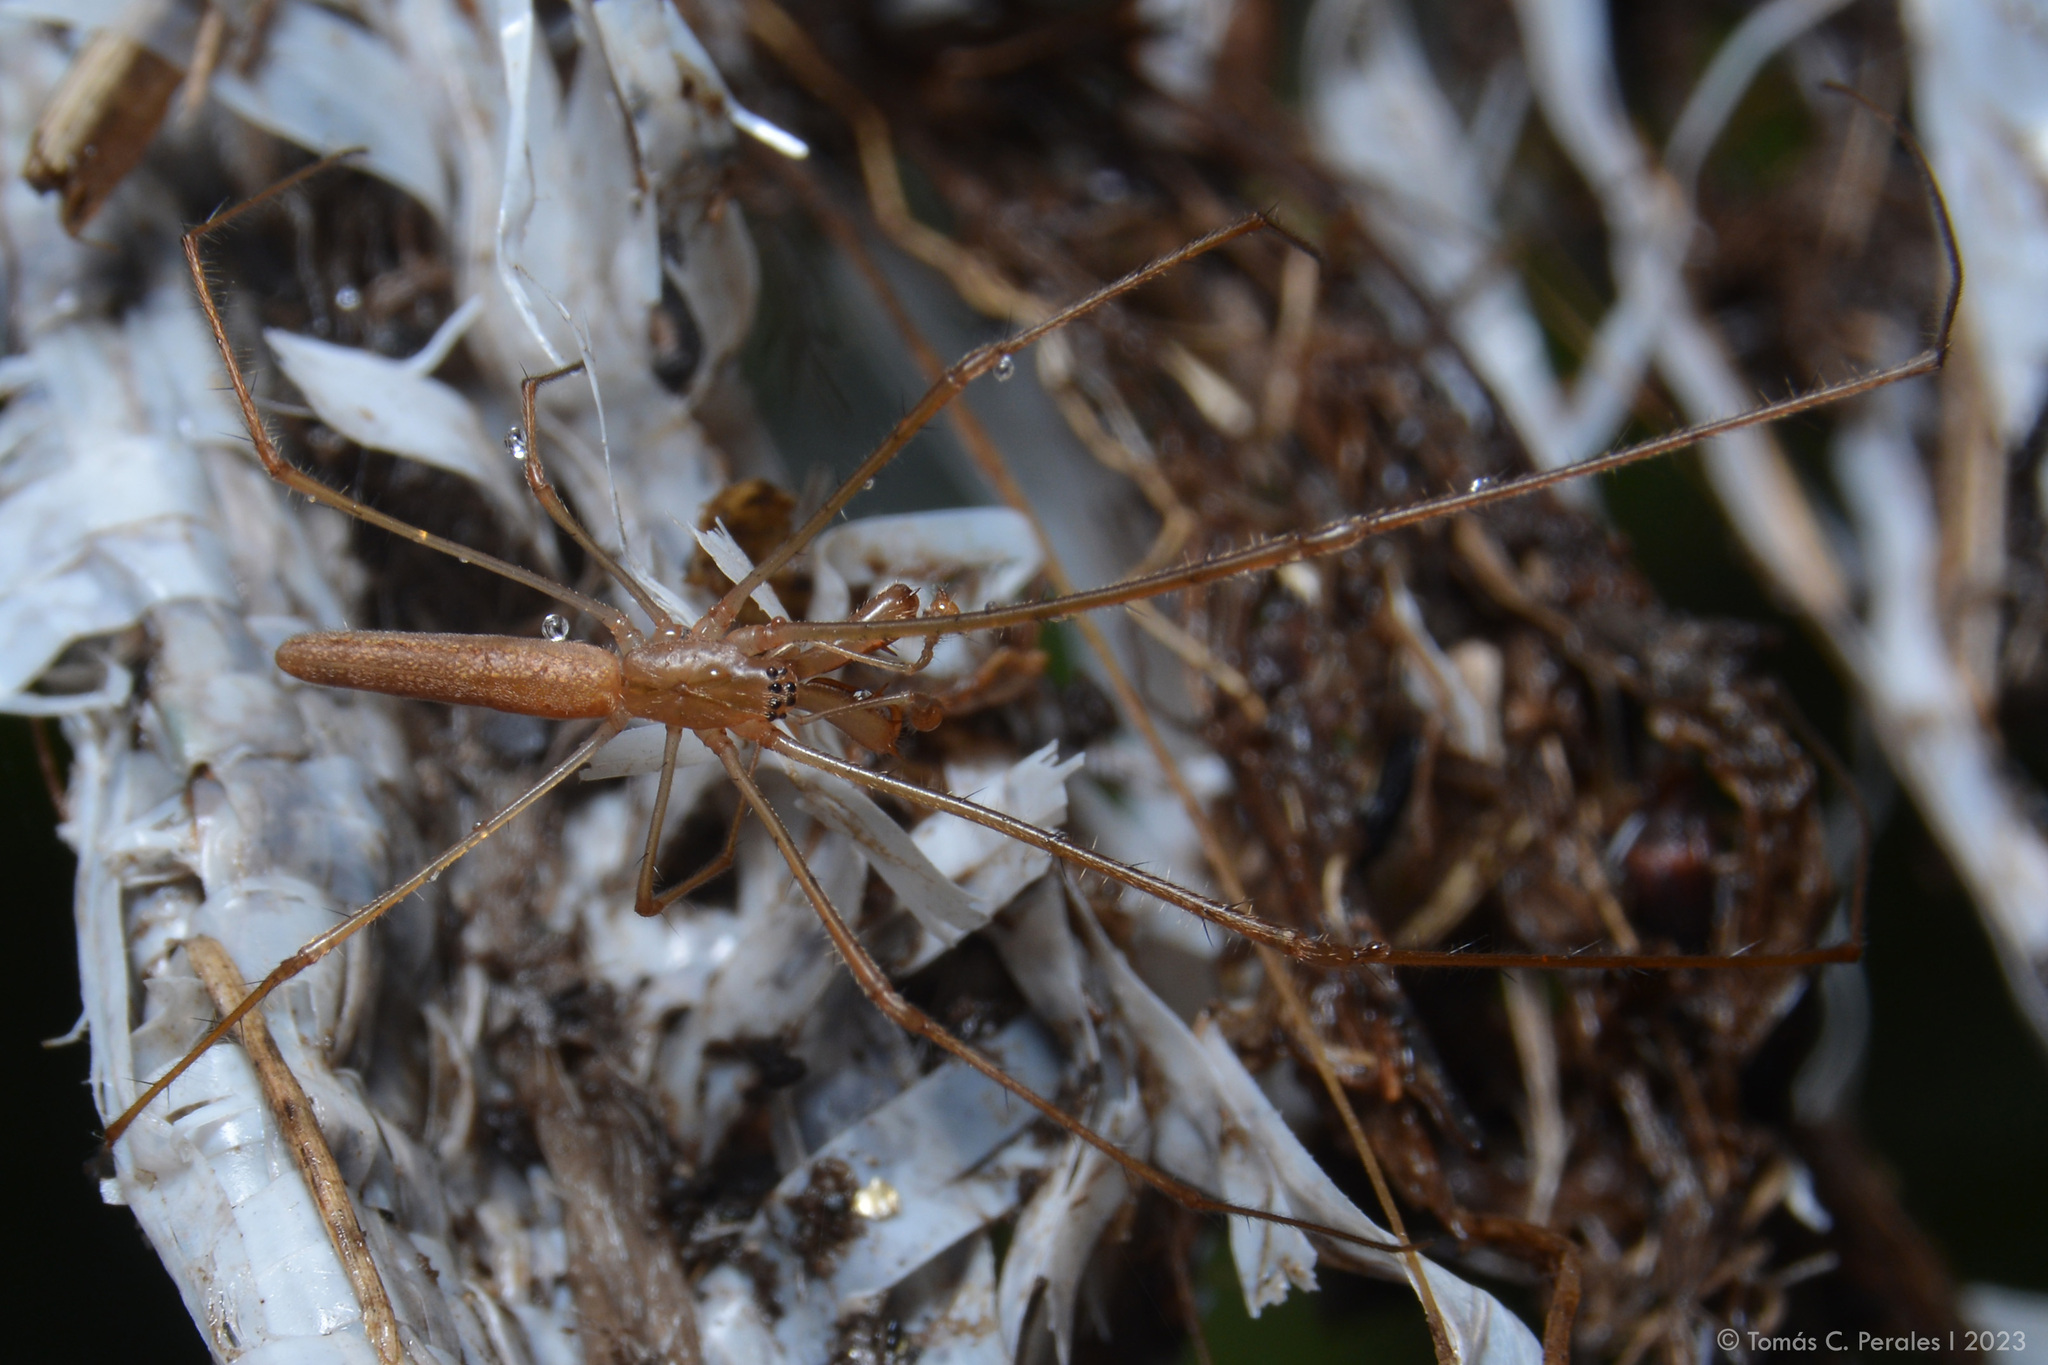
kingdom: Animalia
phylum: Arthropoda
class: Arachnida
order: Araneae
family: Tetragnathidae
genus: Tetragnatha
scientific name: Tetragnatha
